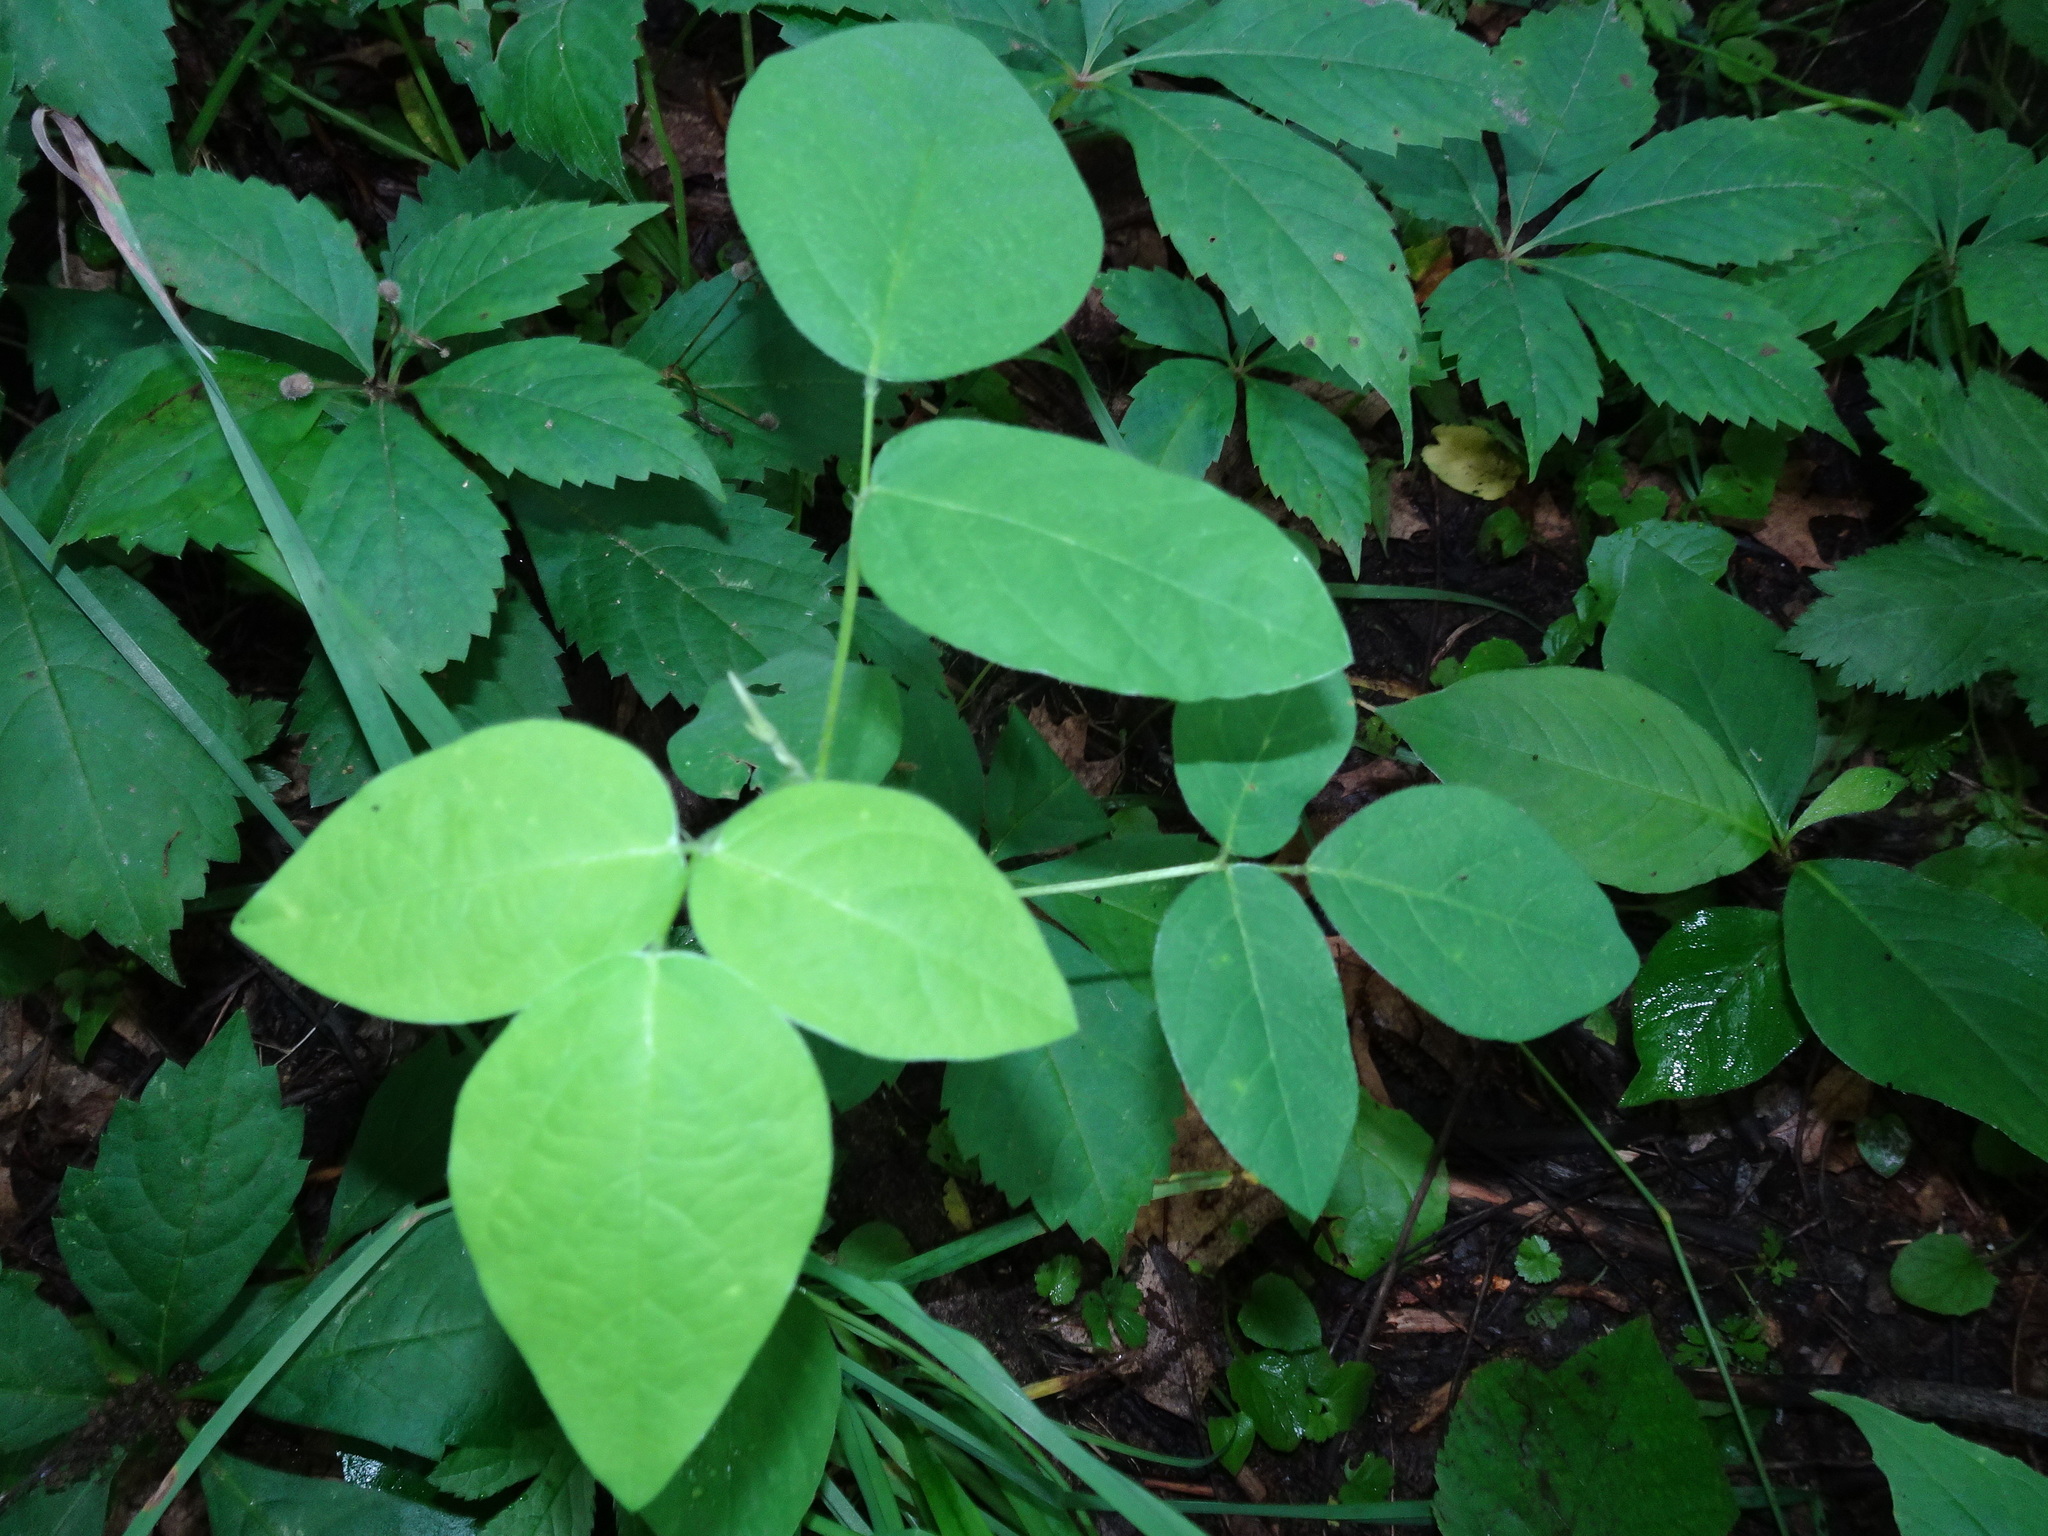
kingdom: Plantae
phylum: Tracheophyta
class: Magnoliopsida
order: Fabales
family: Fabaceae
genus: Desmodium
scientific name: Desmodium
